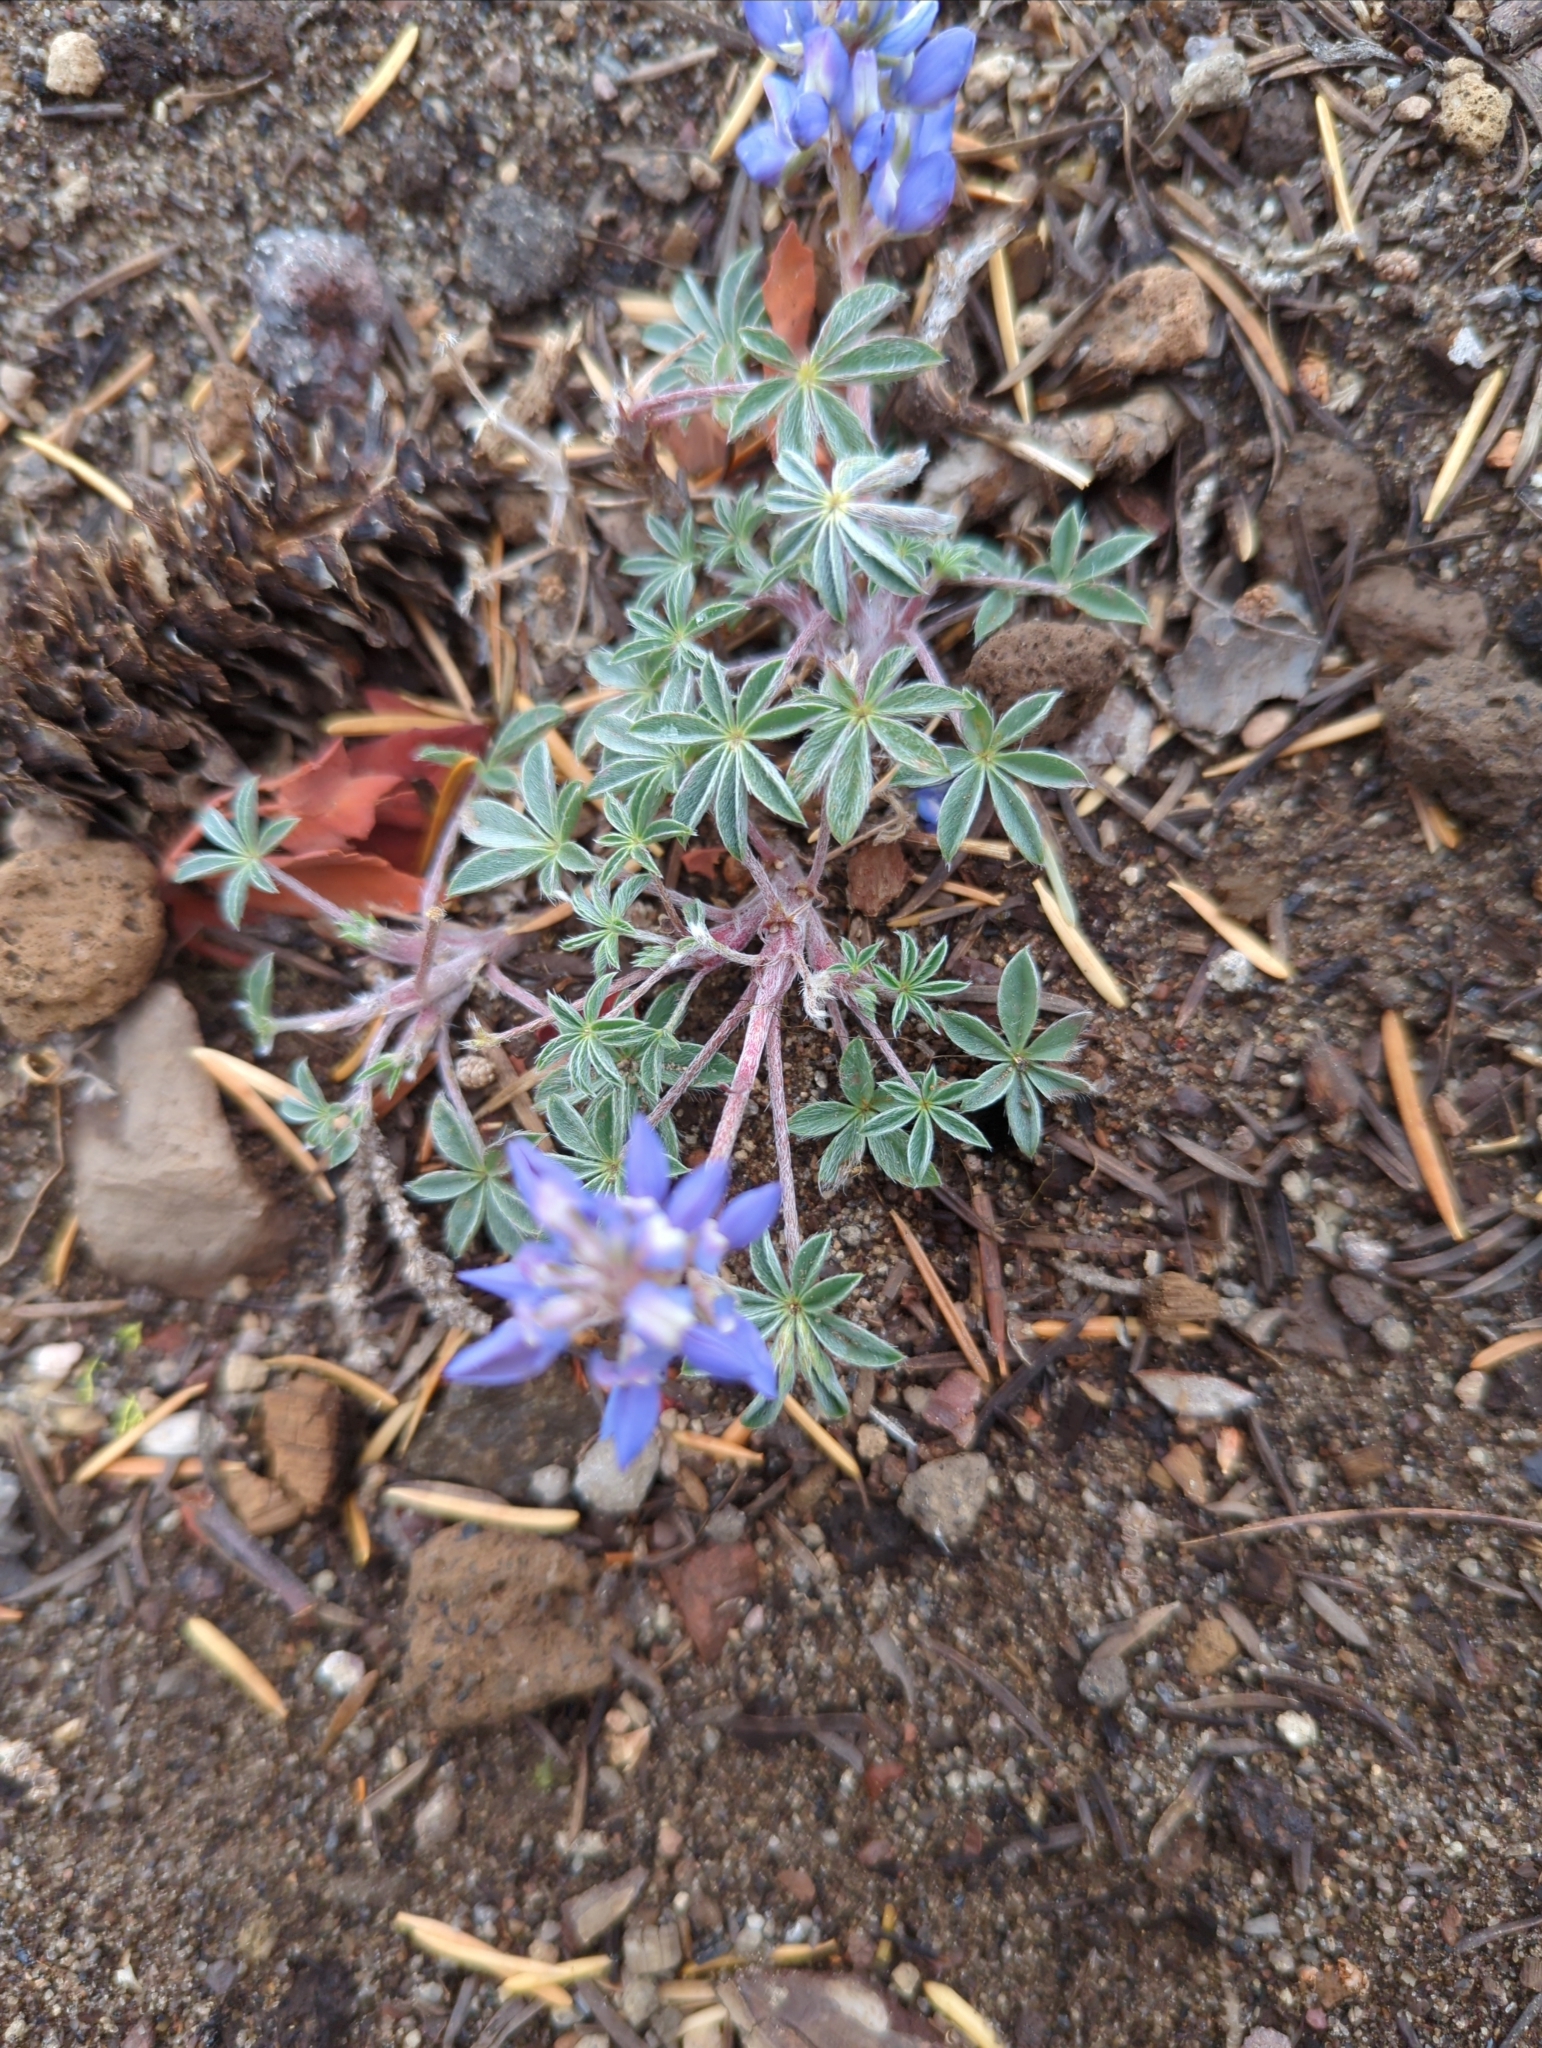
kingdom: Plantae
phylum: Tracheophyta
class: Magnoliopsida
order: Fabales
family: Fabaceae
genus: Lupinus
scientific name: Lupinus lepidus
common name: Prairie lupine
